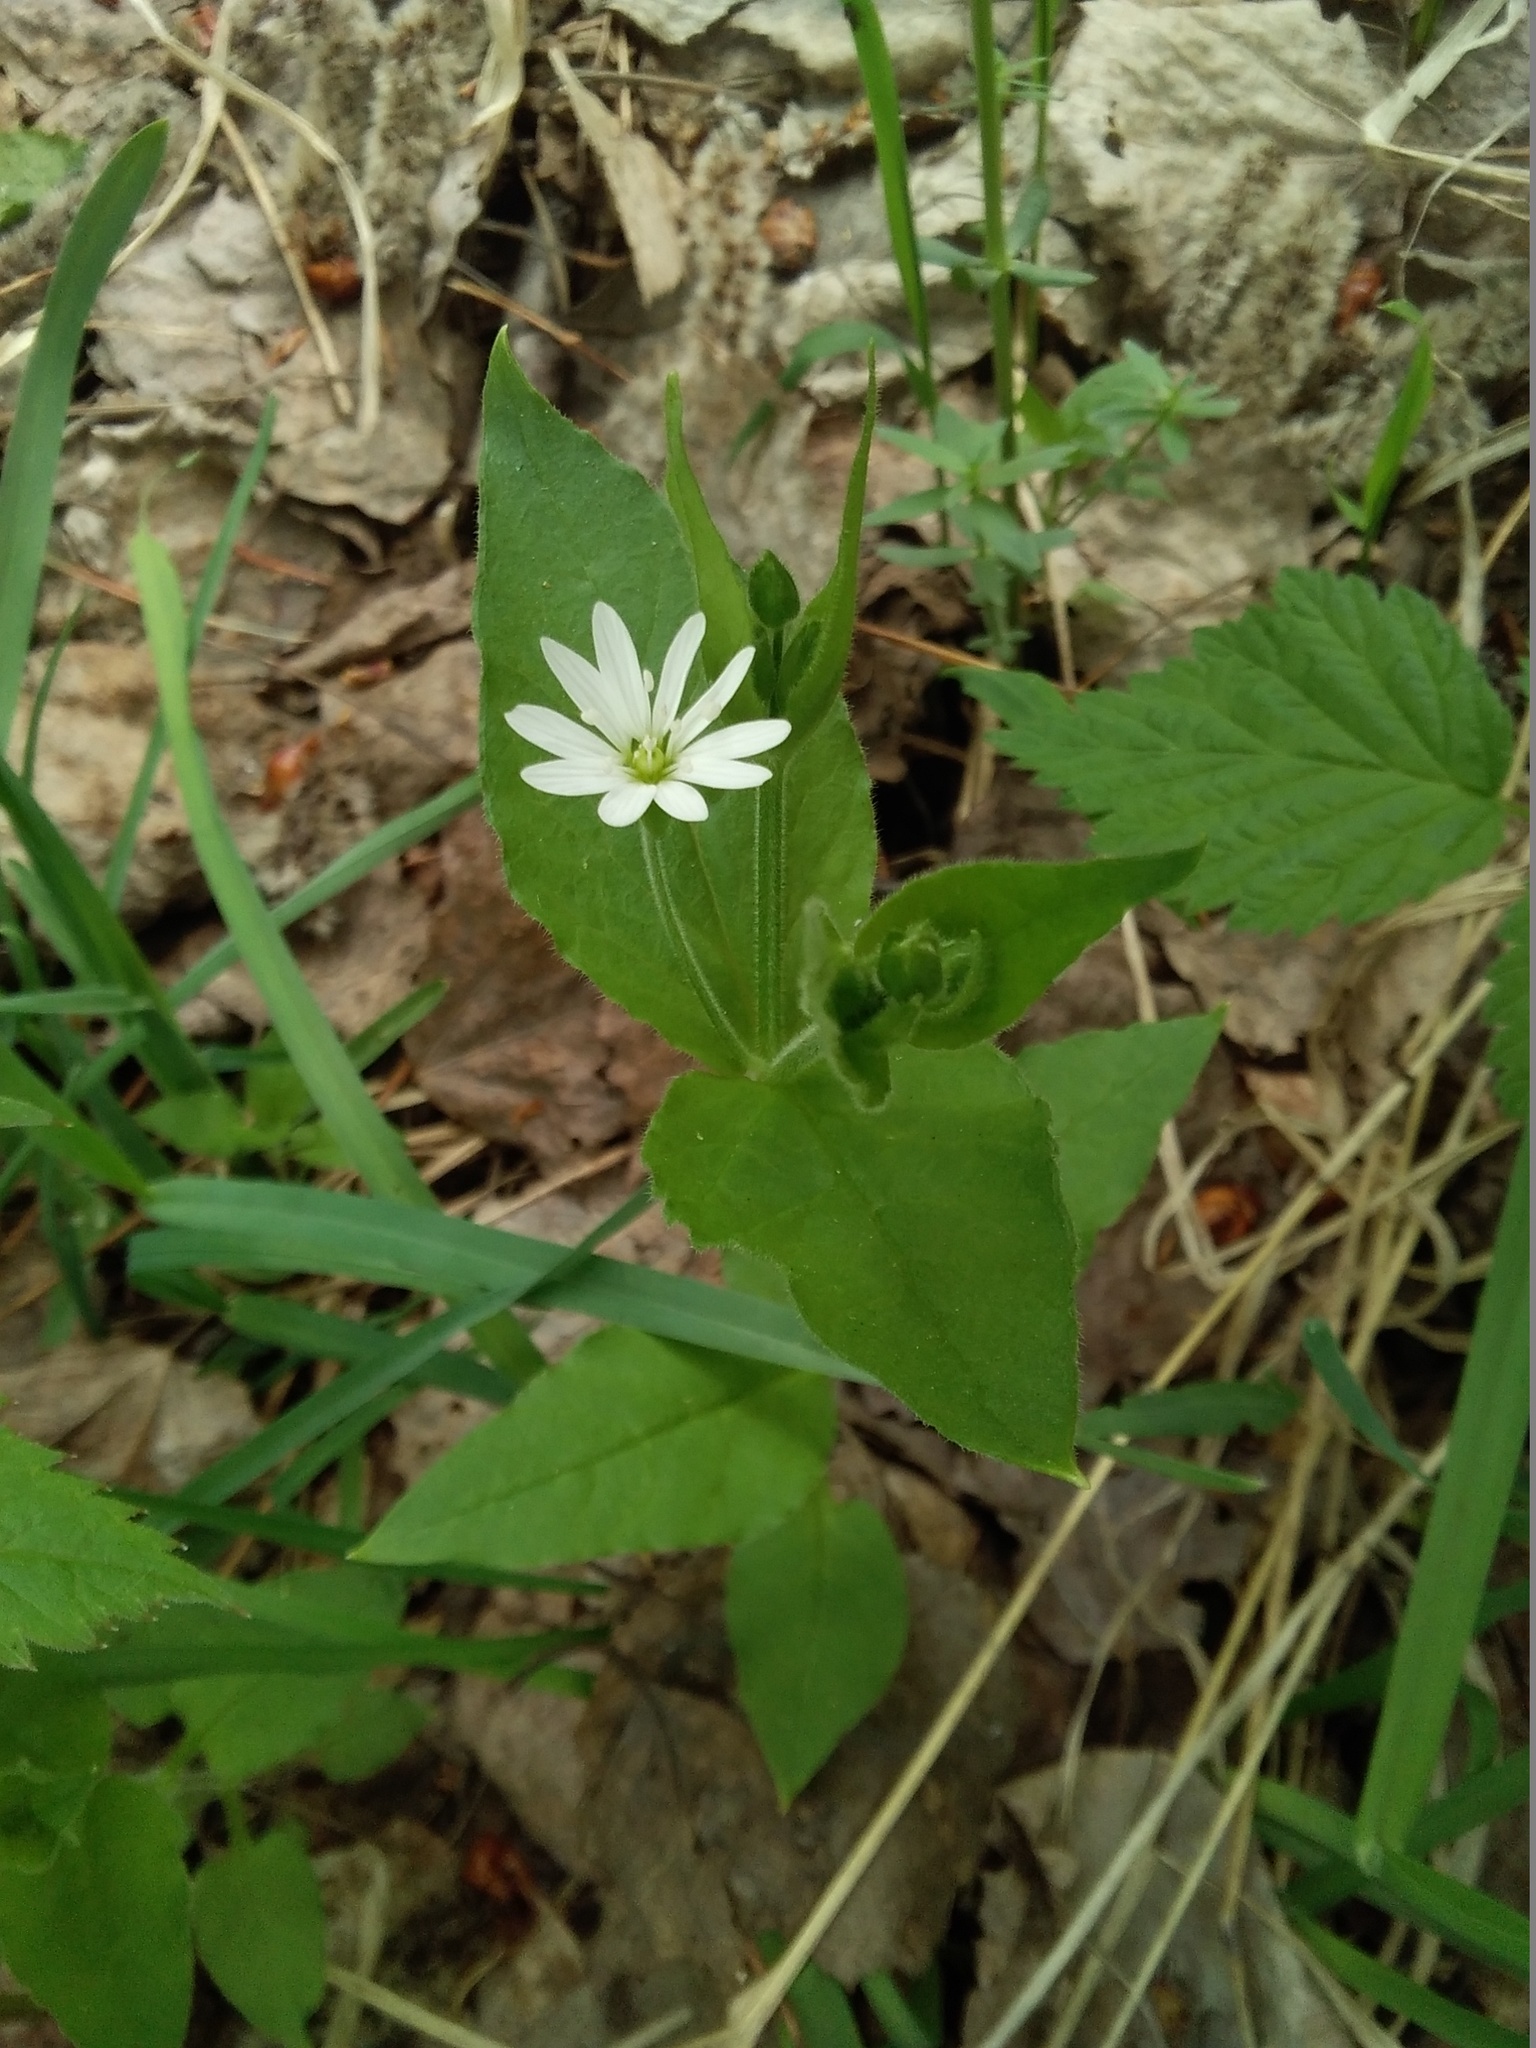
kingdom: Plantae
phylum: Tracheophyta
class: Magnoliopsida
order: Caryophyllales
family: Caryophyllaceae
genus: Stellaria
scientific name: Stellaria bungeana
